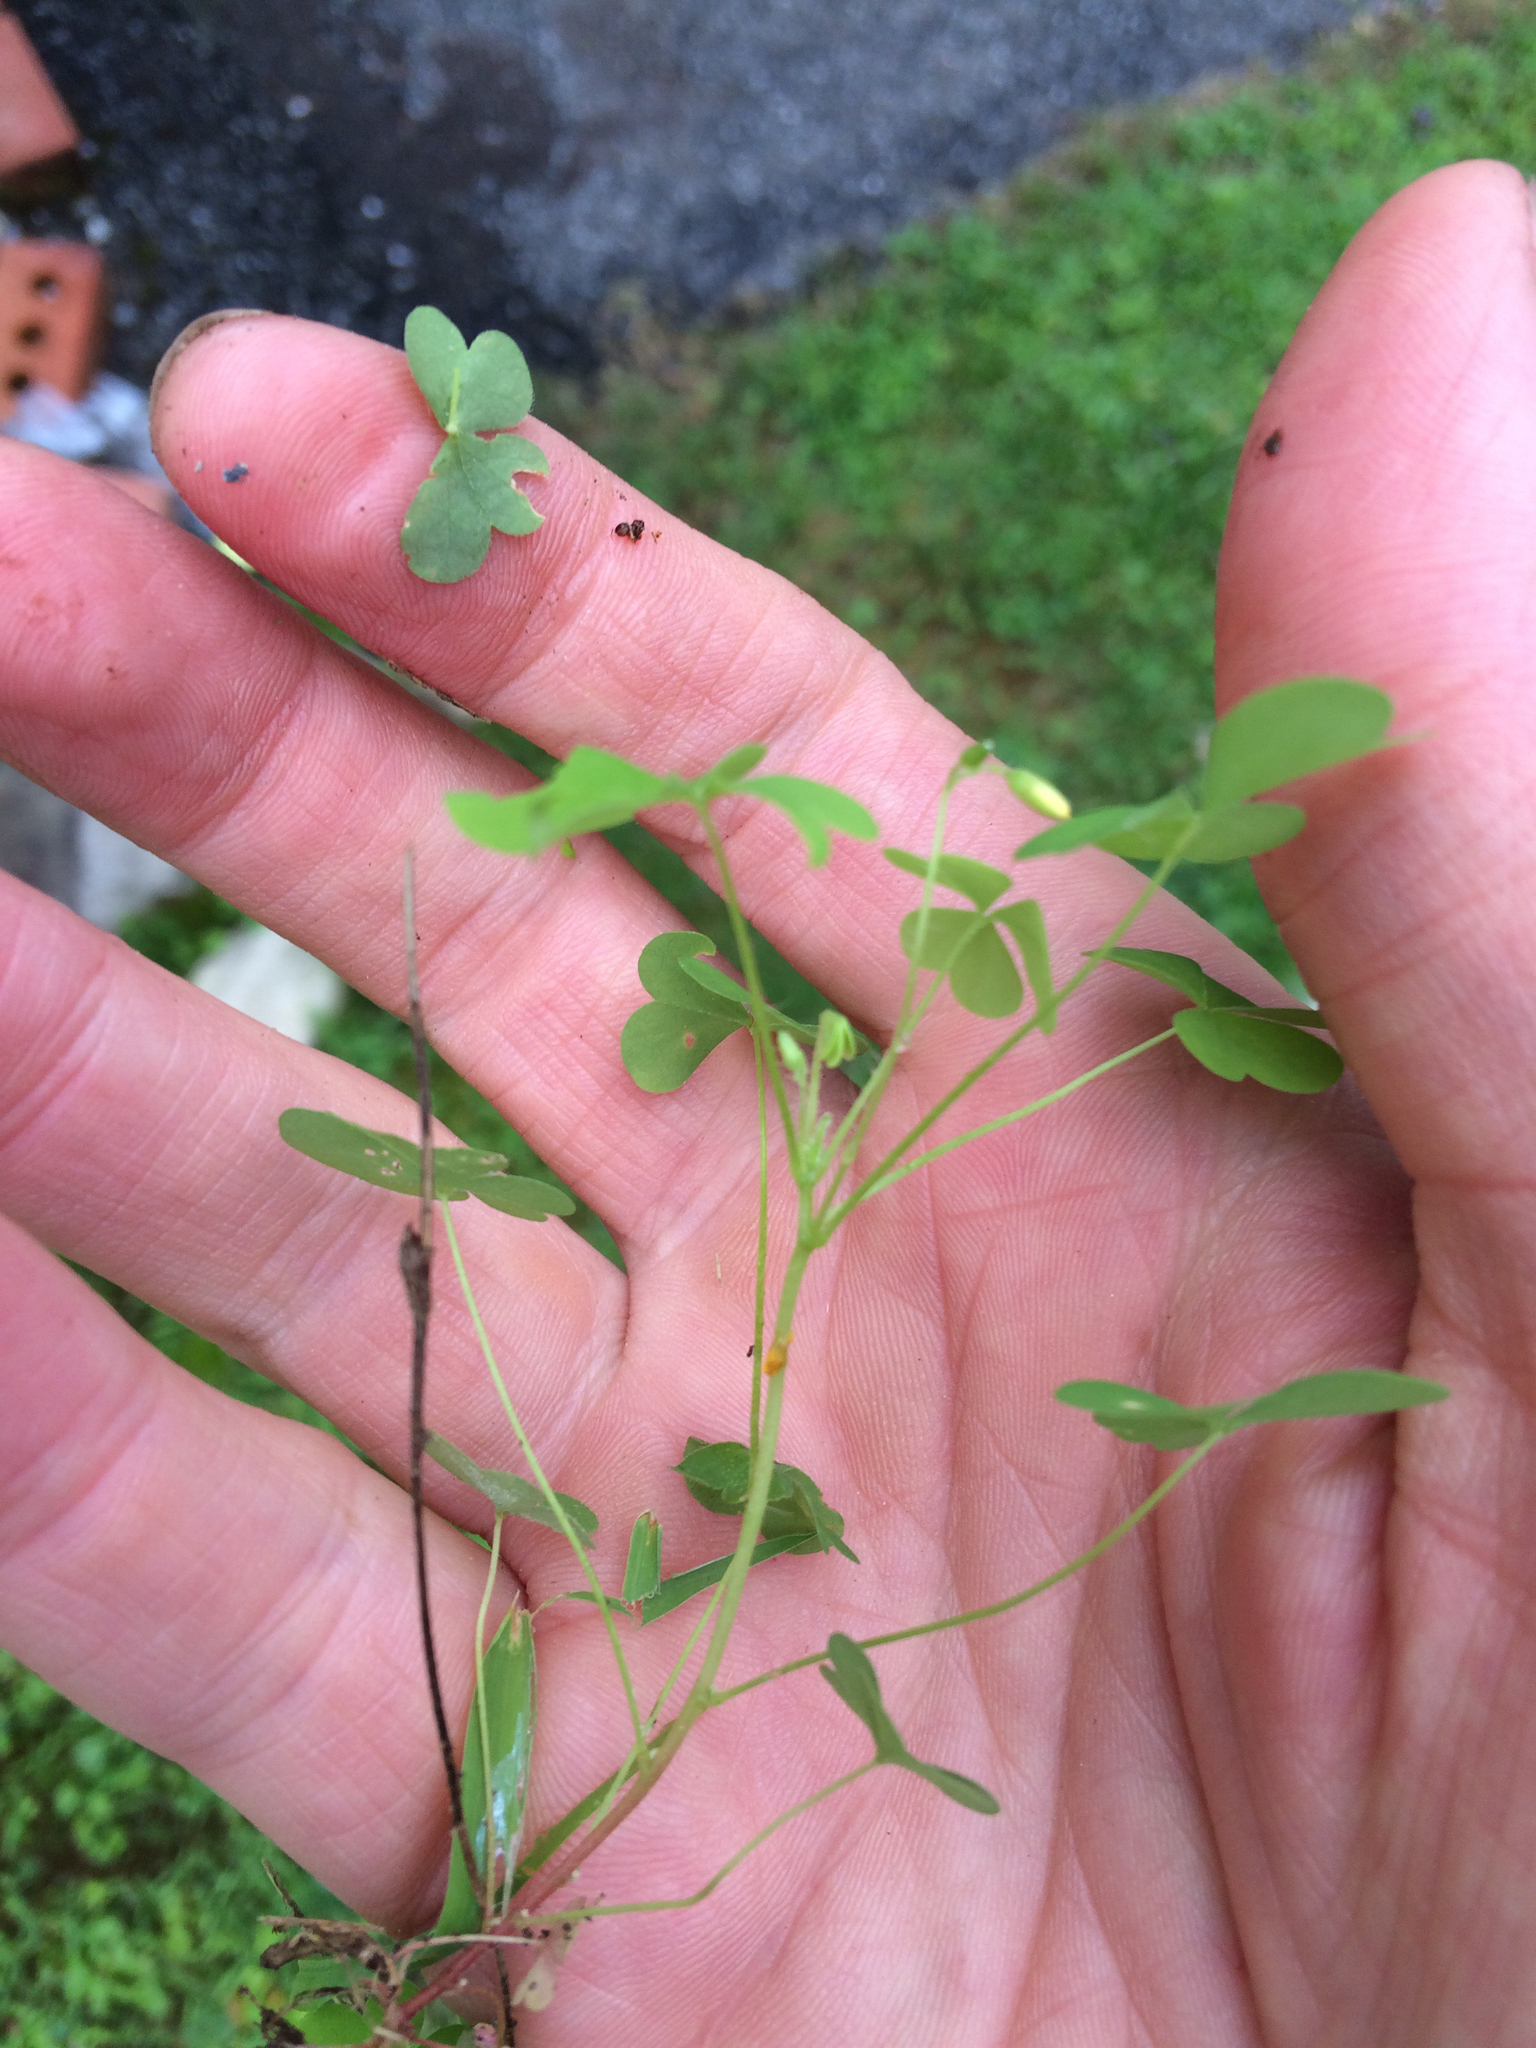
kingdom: Plantae
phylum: Tracheophyta
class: Magnoliopsida
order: Oxalidales
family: Oxalidaceae
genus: Oxalis
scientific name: Oxalis stricta
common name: Upright yellow-sorrel
